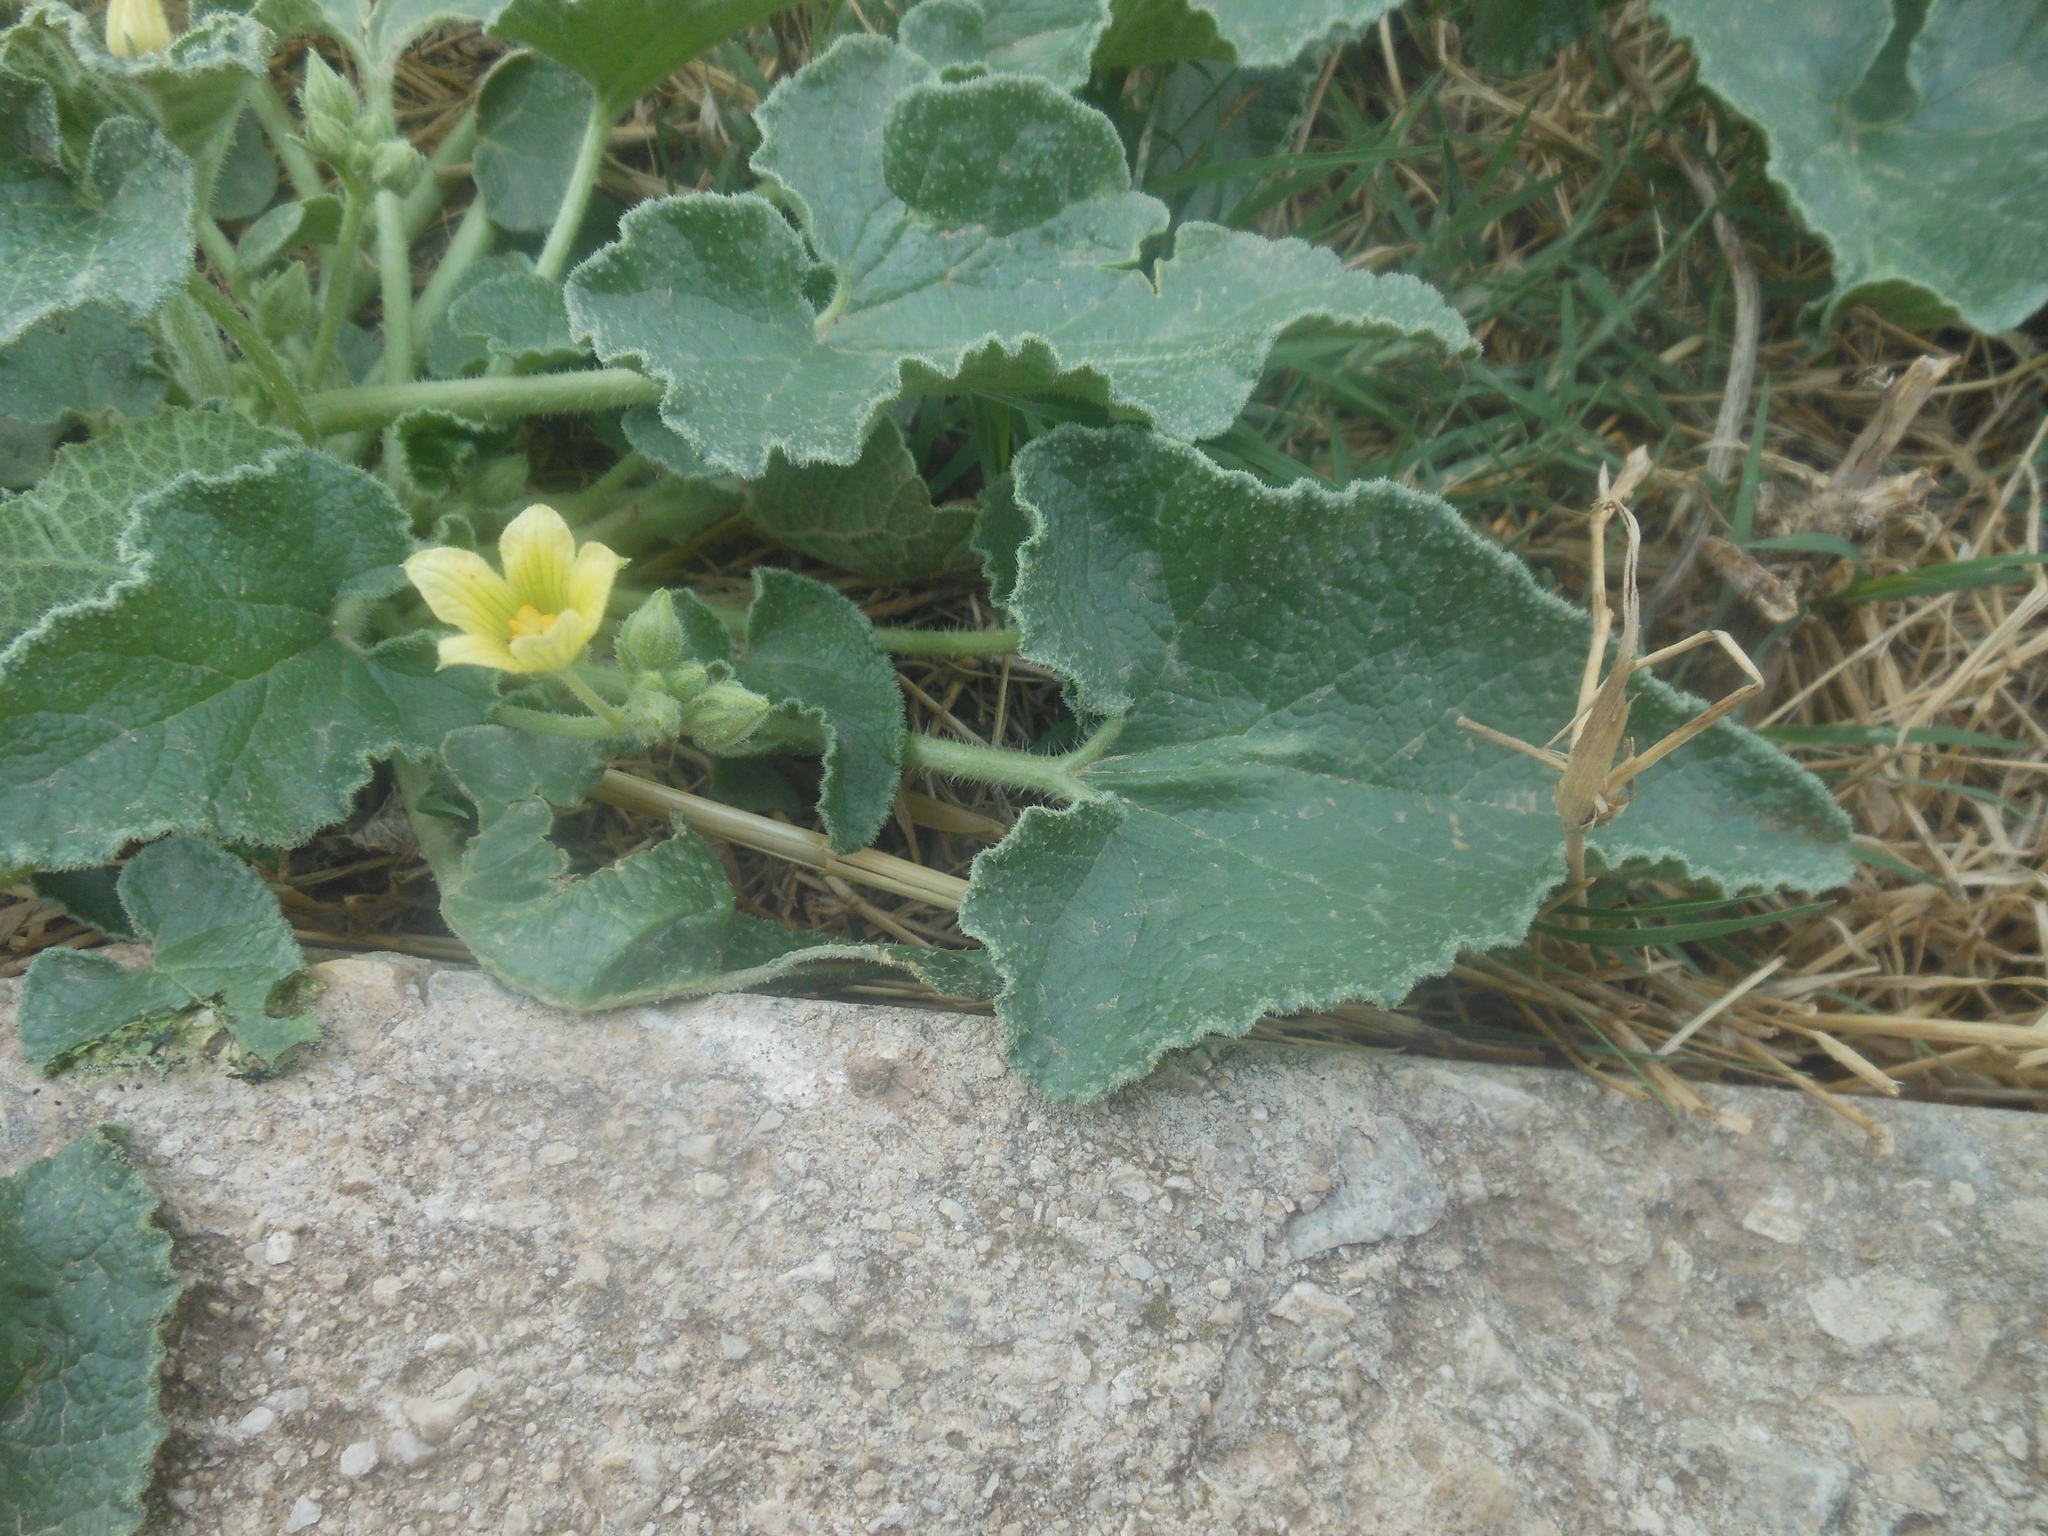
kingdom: Plantae
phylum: Tracheophyta
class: Magnoliopsida
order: Cucurbitales
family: Cucurbitaceae
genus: Ecballium
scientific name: Ecballium elaterium
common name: Squirting cucumber
